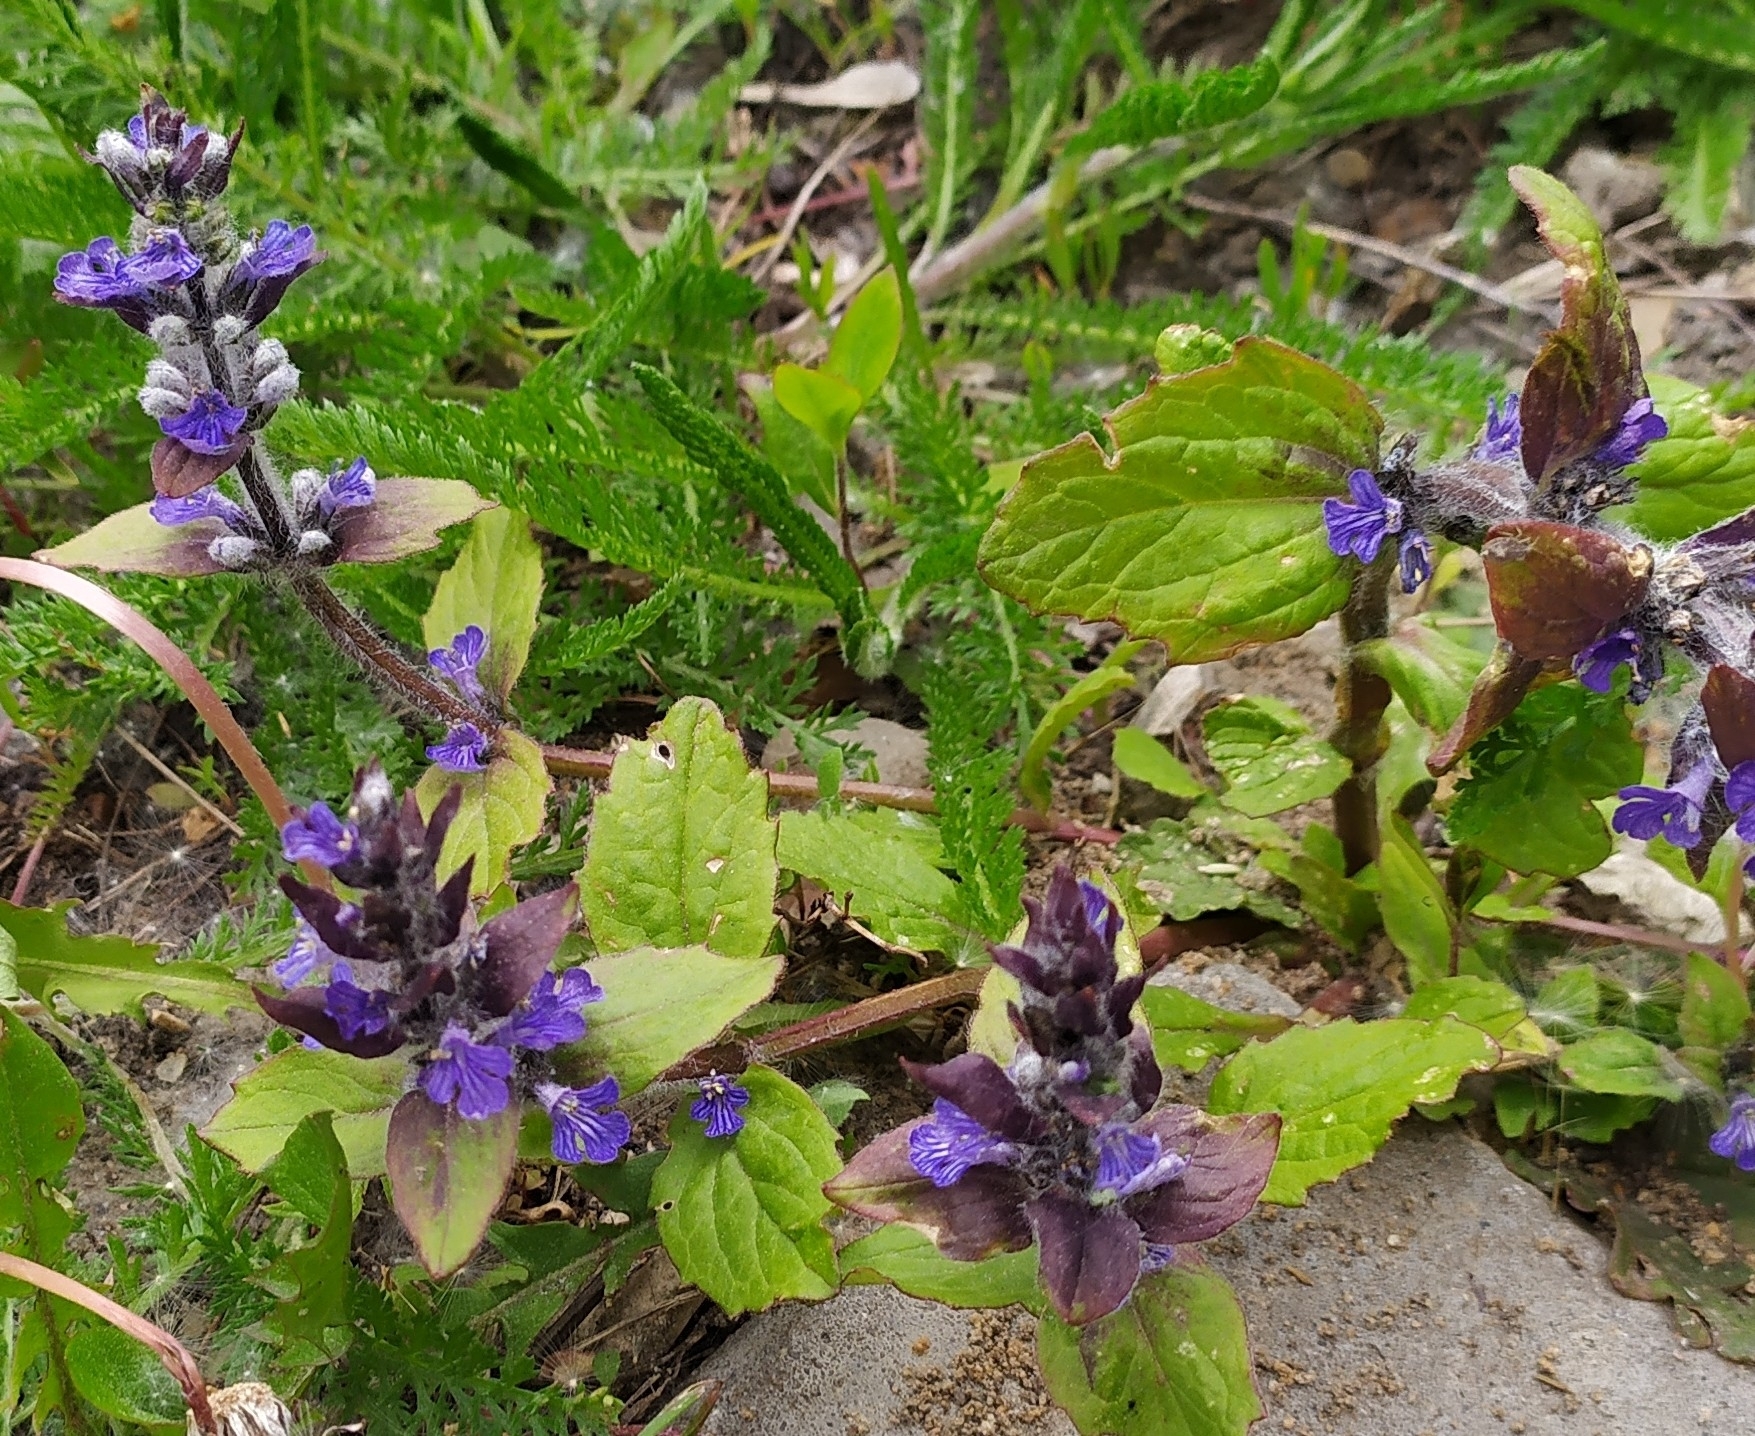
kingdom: Plantae
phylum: Tracheophyta
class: Magnoliopsida
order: Lamiales
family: Lamiaceae
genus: Ajuga
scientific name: Ajuga reptans
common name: Bugle
